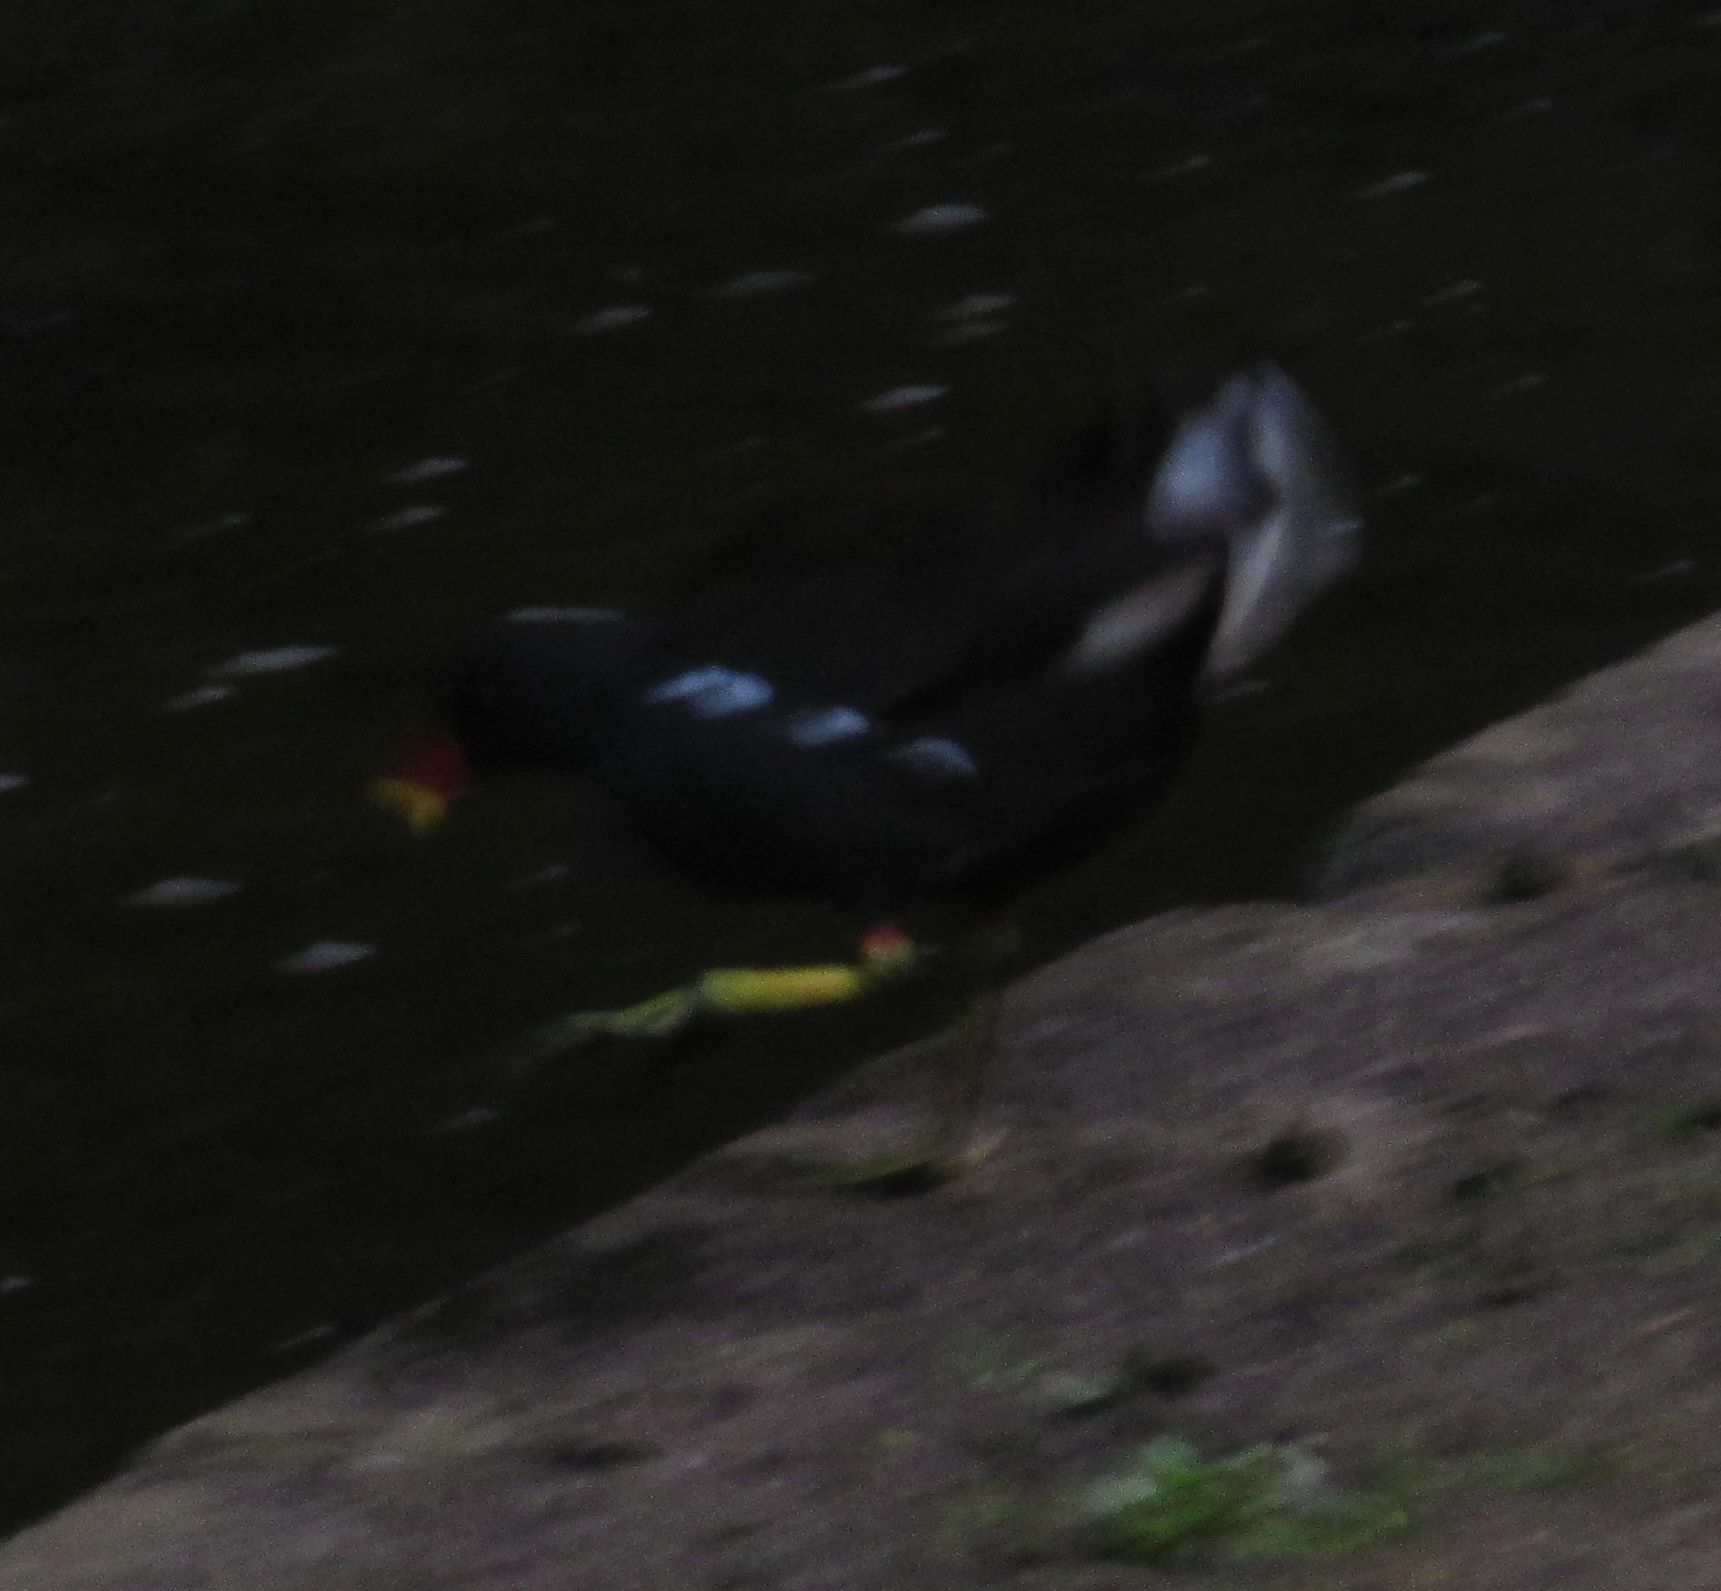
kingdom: Animalia
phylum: Chordata
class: Aves
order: Gruiformes
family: Rallidae
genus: Gallinula
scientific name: Gallinula chloropus
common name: Common moorhen
